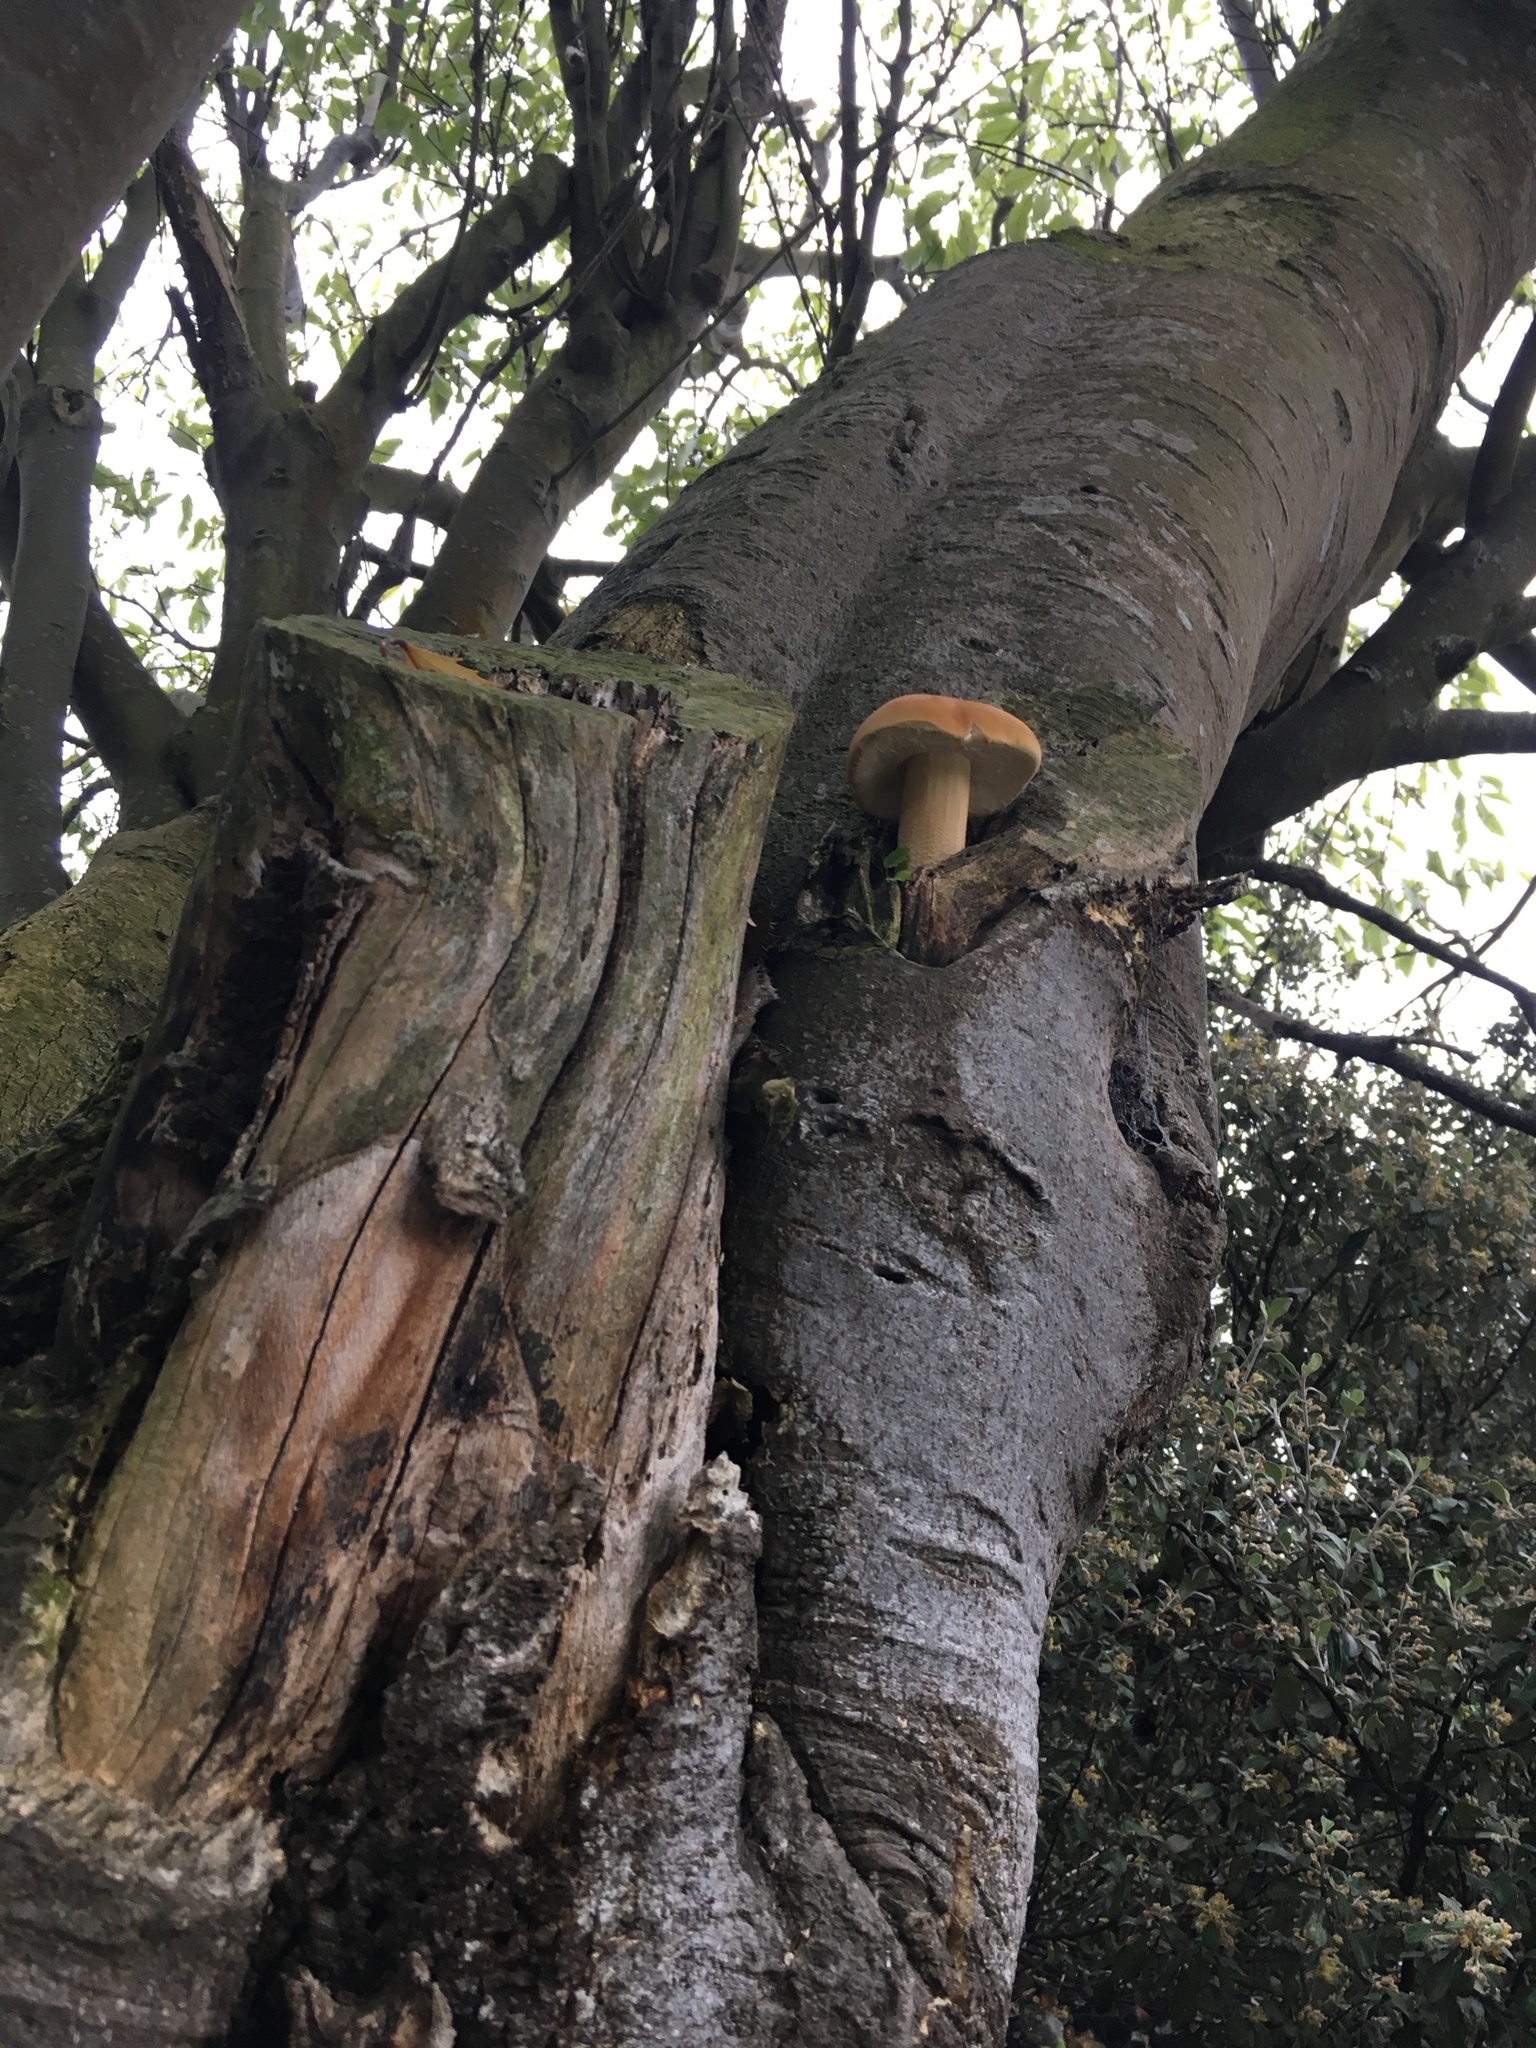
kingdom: Fungi
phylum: Basidiomycota
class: Agaricomycetes
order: Agaricales
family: Tubariaceae
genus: Cyclocybe
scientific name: Cyclocybe parasitica
